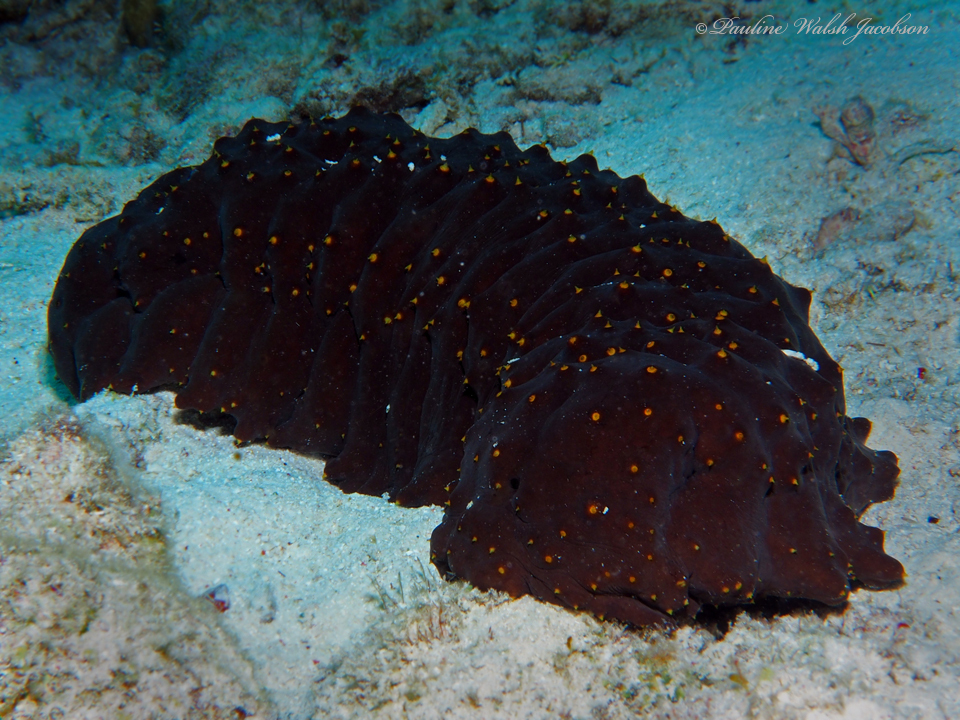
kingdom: Animalia
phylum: Echinodermata
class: Holothuroidea
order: Synallactida
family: Stichopodidae
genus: Isostichopus
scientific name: Isostichopus badionotus
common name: Chocolate chip cucumber
